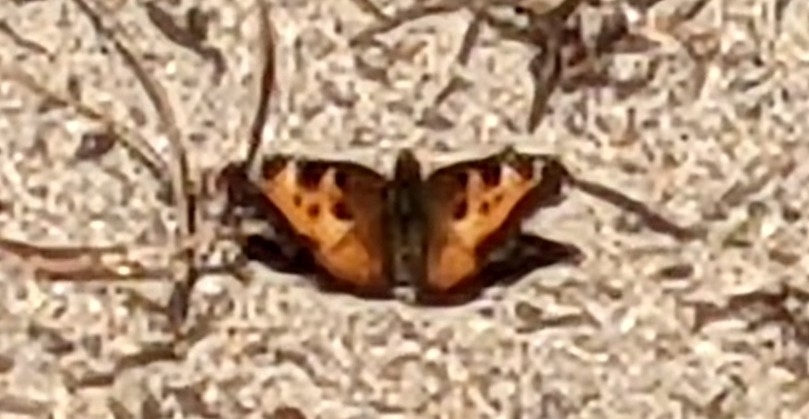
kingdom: Animalia
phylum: Arthropoda
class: Insecta
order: Lepidoptera
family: Nymphalidae
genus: Nymphalis
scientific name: Nymphalis californica
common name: California tortoiseshell
